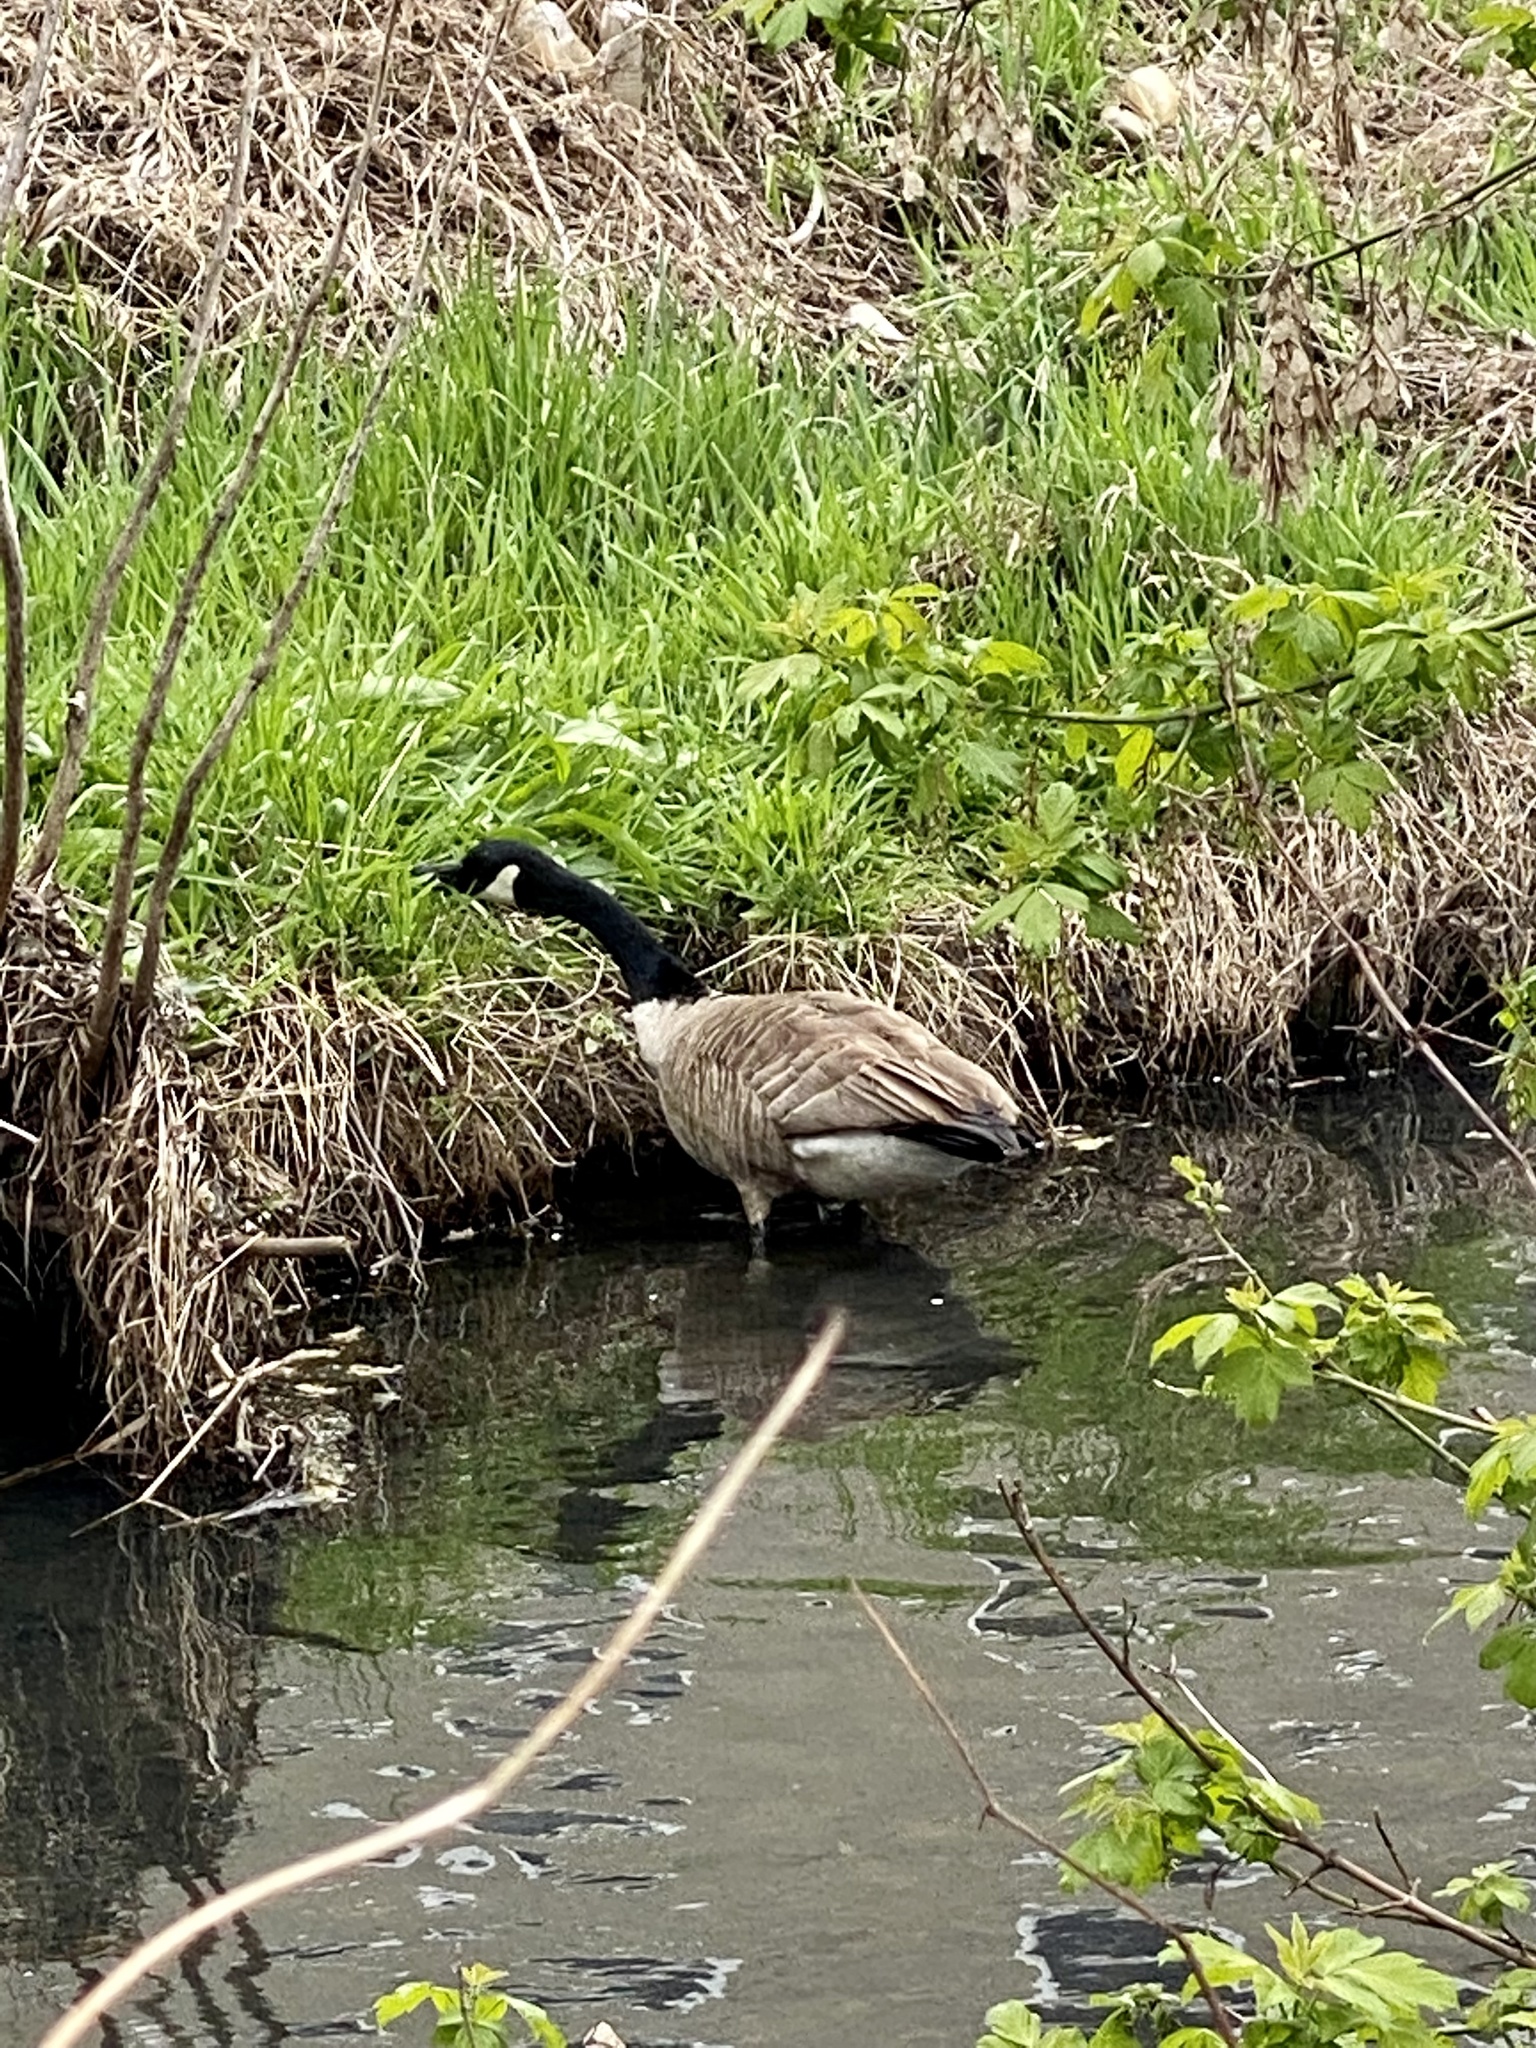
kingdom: Animalia
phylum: Chordata
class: Aves
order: Anseriformes
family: Anatidae
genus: Branta
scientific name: Branta canadensis
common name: Canada goose
